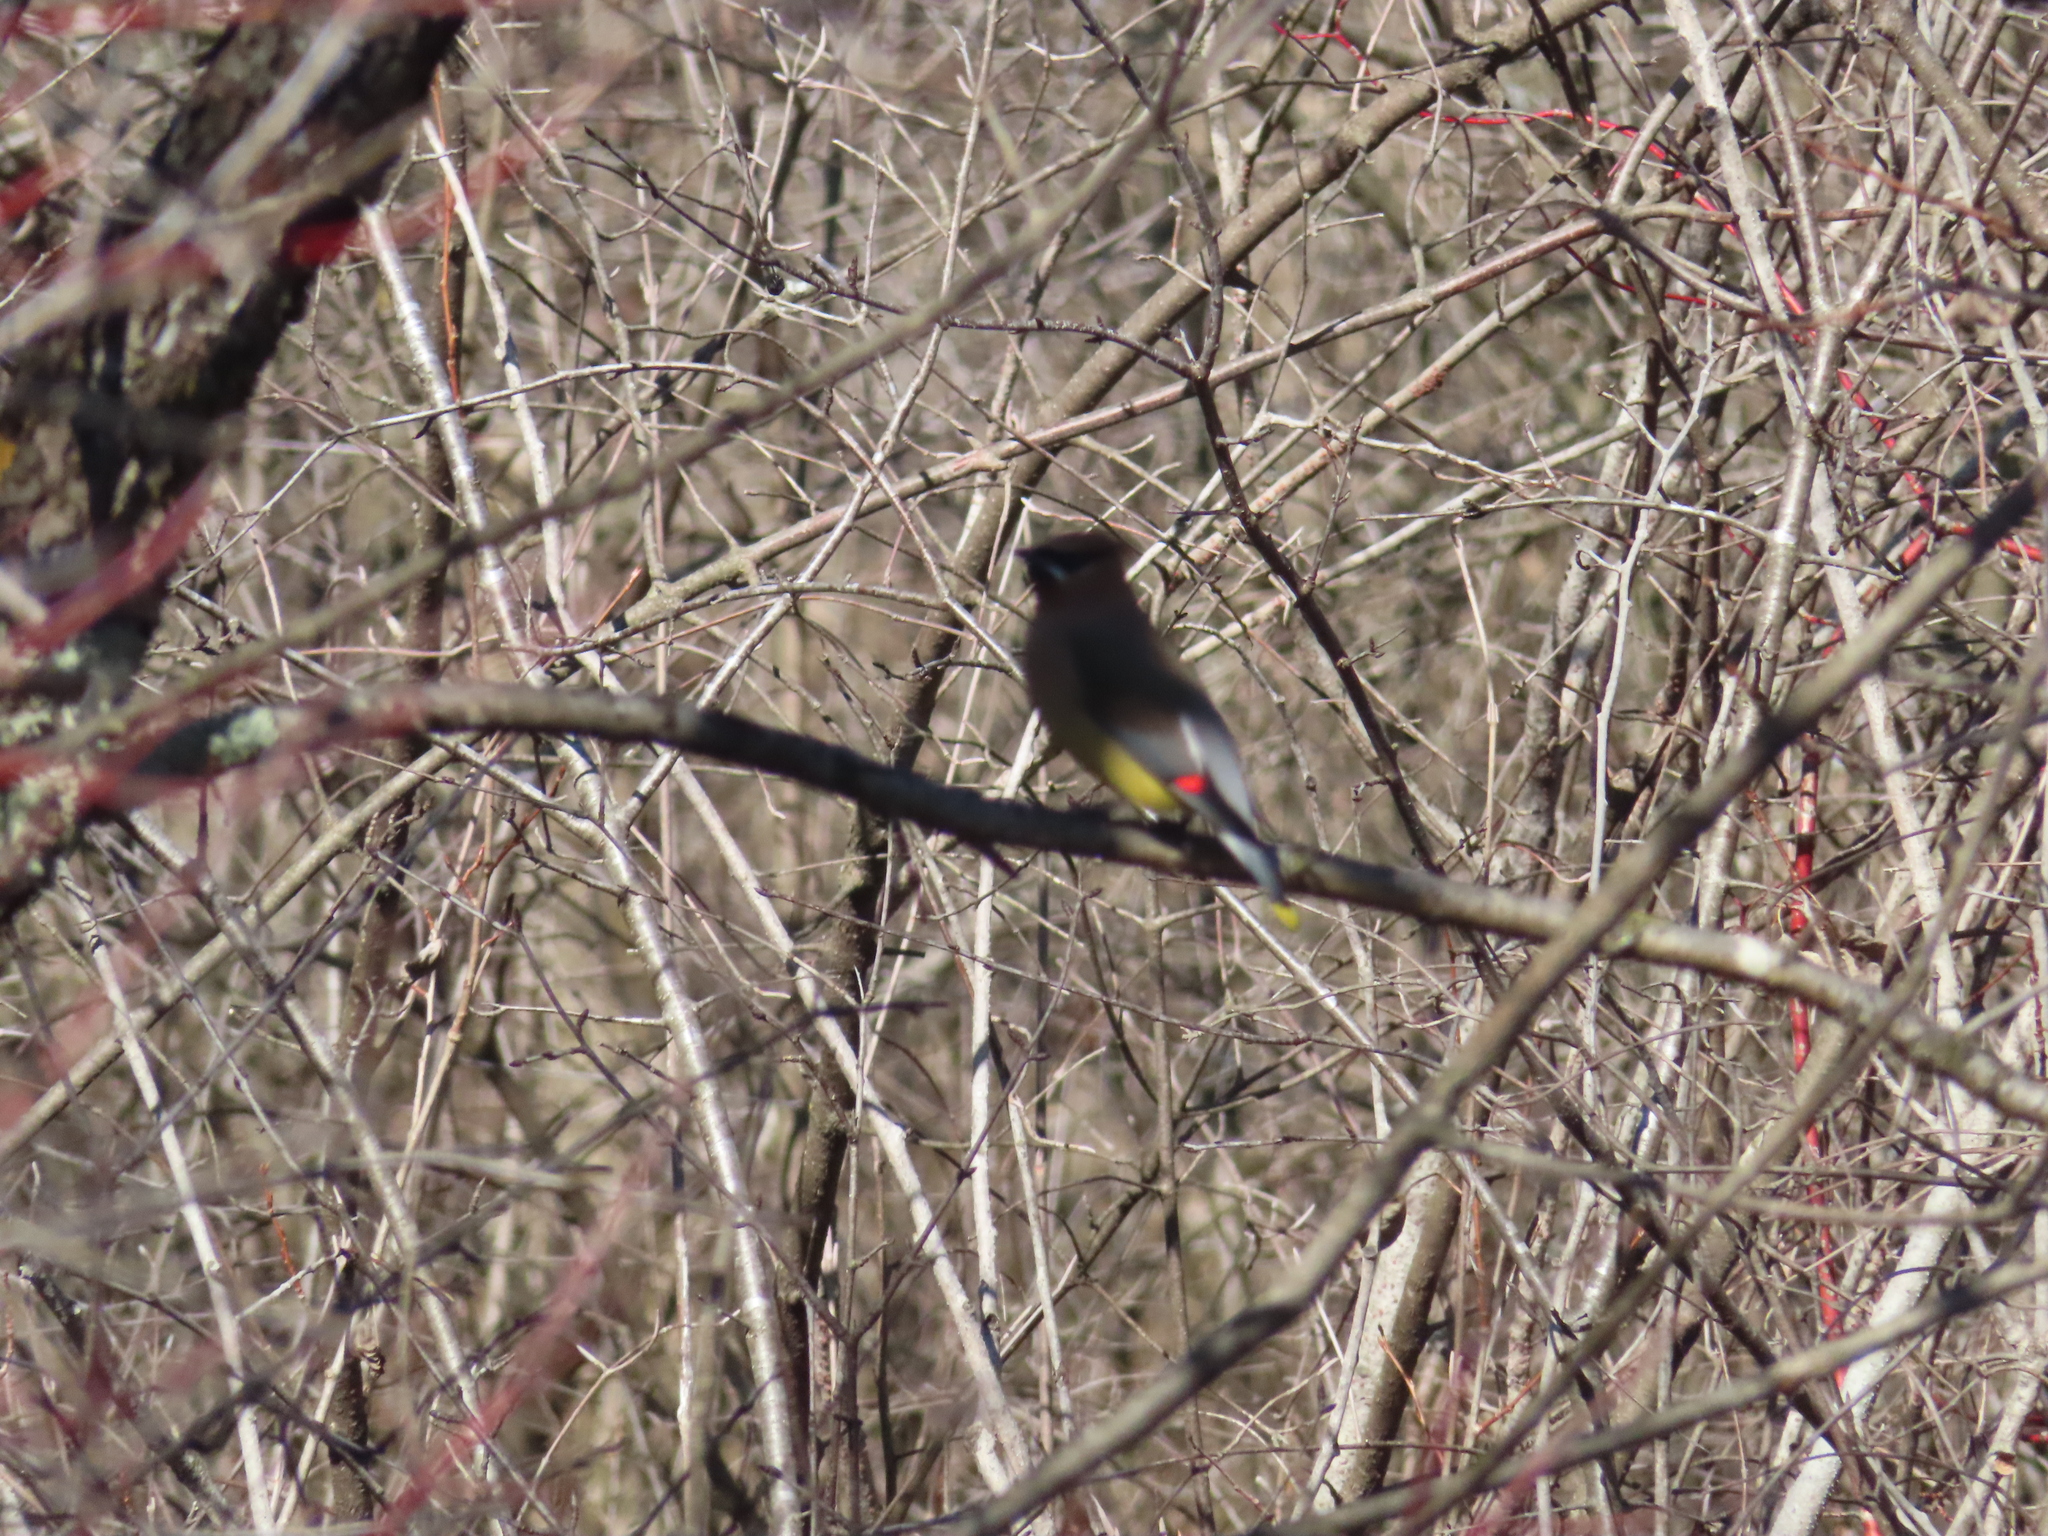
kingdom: Animalia
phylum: Chordata
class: Aves
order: Passeriformes
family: Bombycillidae
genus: Bombycilla
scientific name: Bombycilla cedrorum
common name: Cedar waxwing
